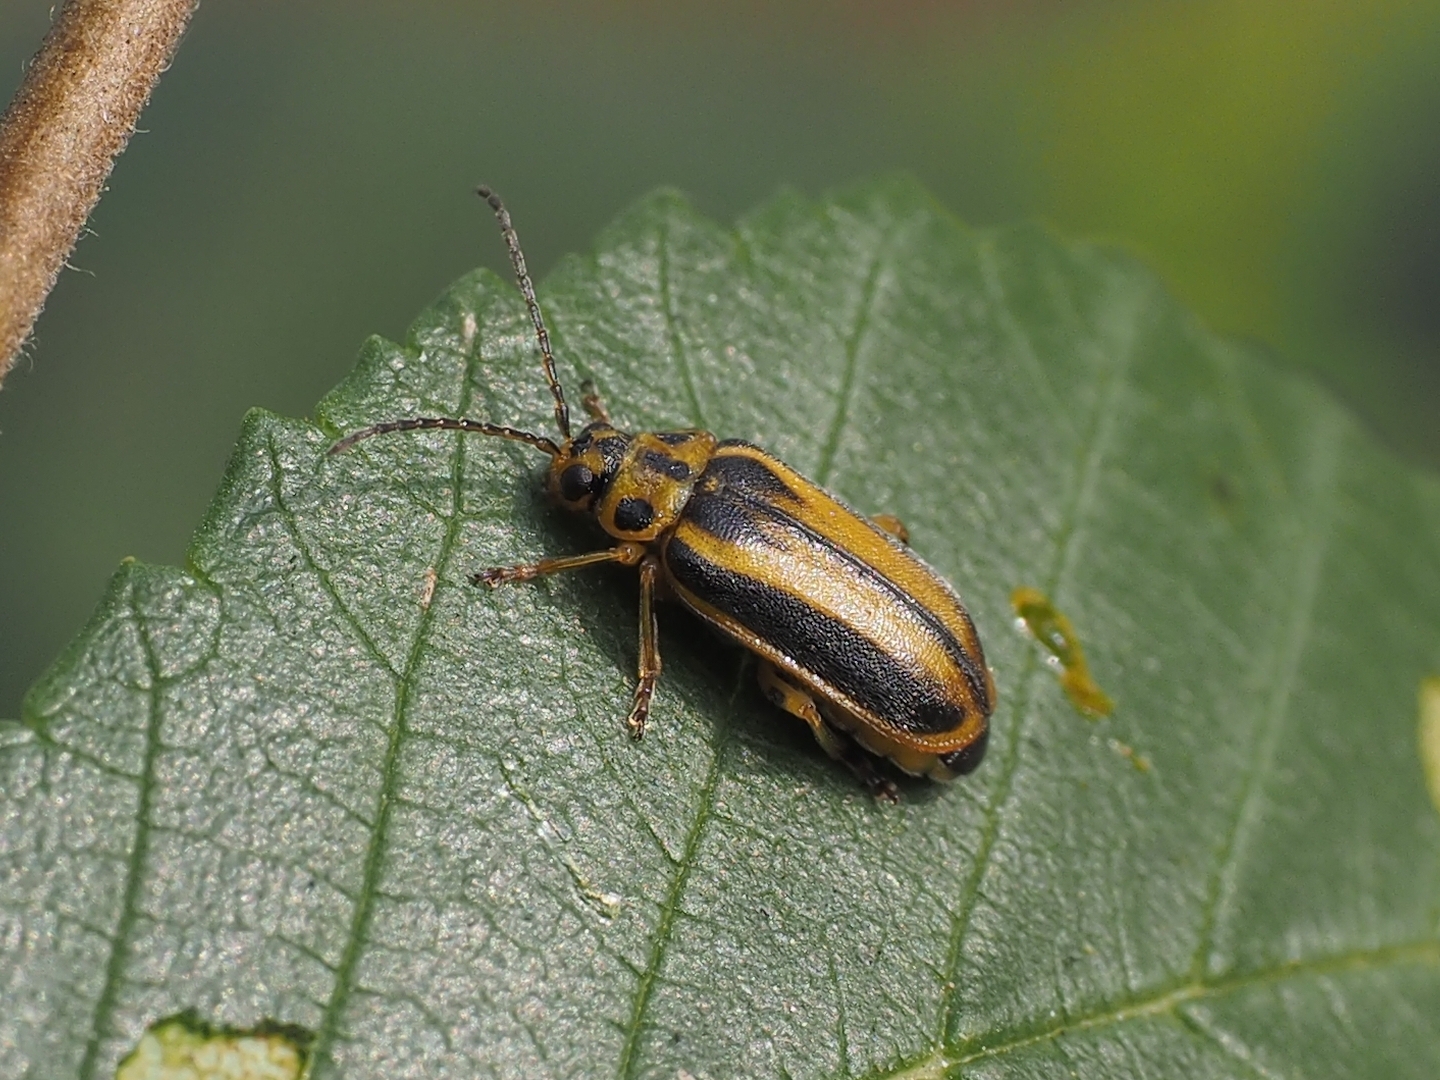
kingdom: Animalia
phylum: Arthropoda
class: Insecta
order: Coleoptera
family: Chrysomelidae
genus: Xanthogaleruca
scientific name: Xanthogaleruca luteola
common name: Elm leaf beetle
